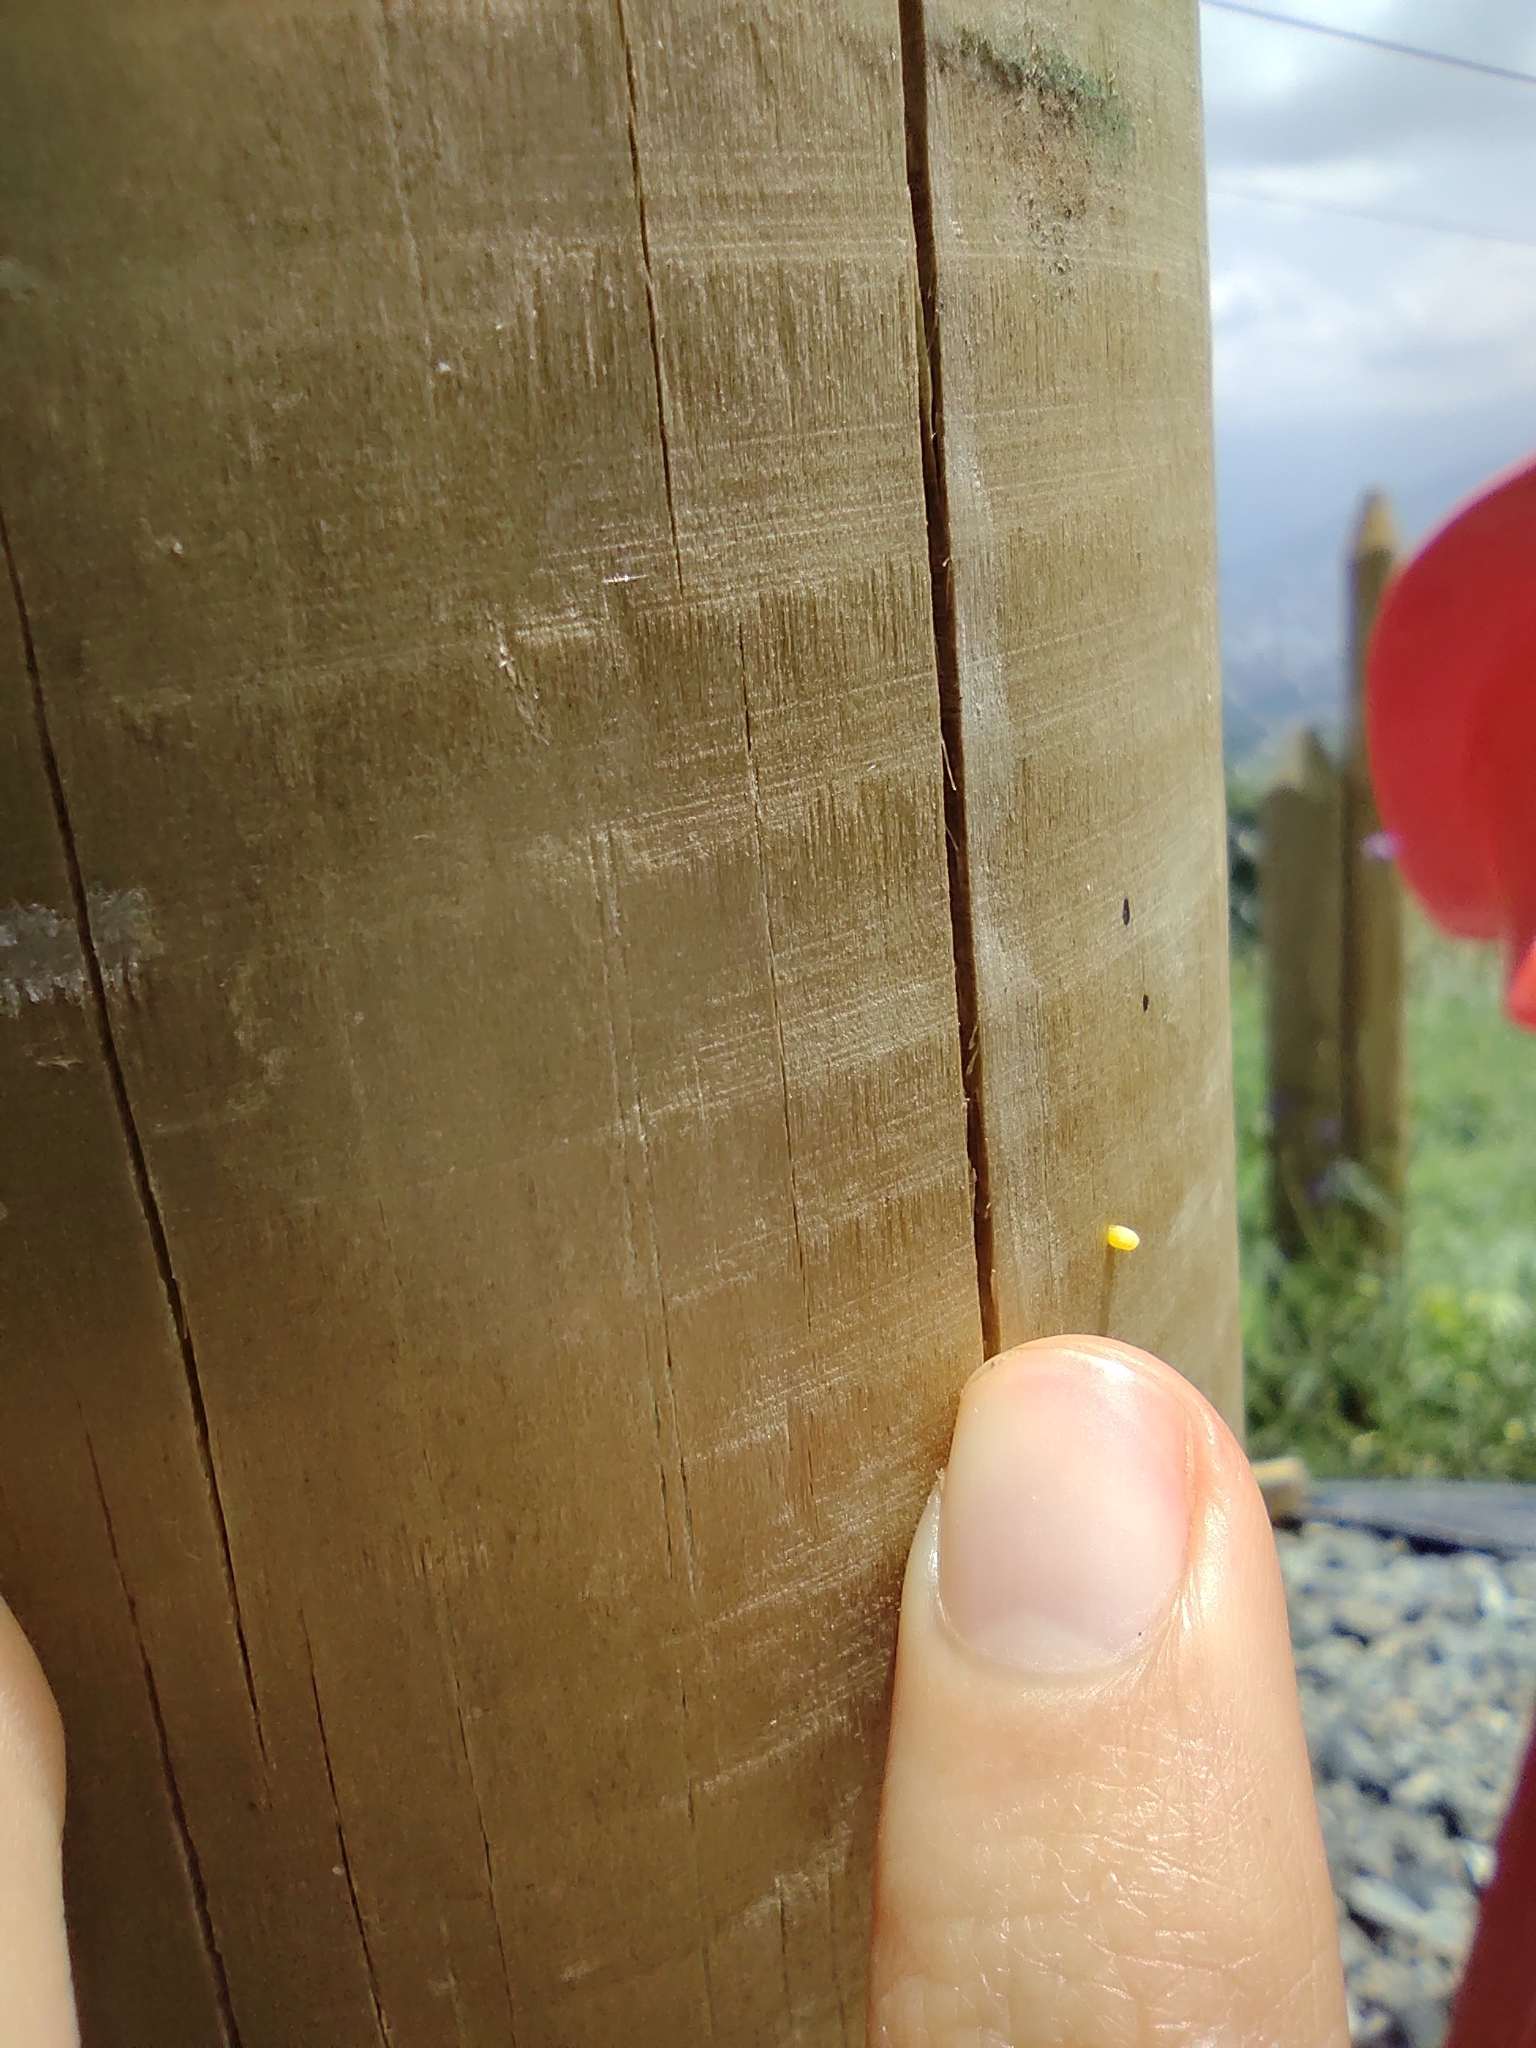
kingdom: Animalia
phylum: Arthropoda
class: Insecta
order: Lepidoptera
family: Nymphalidae
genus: Dione
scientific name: Dione vanillae
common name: Gulf fritillary
